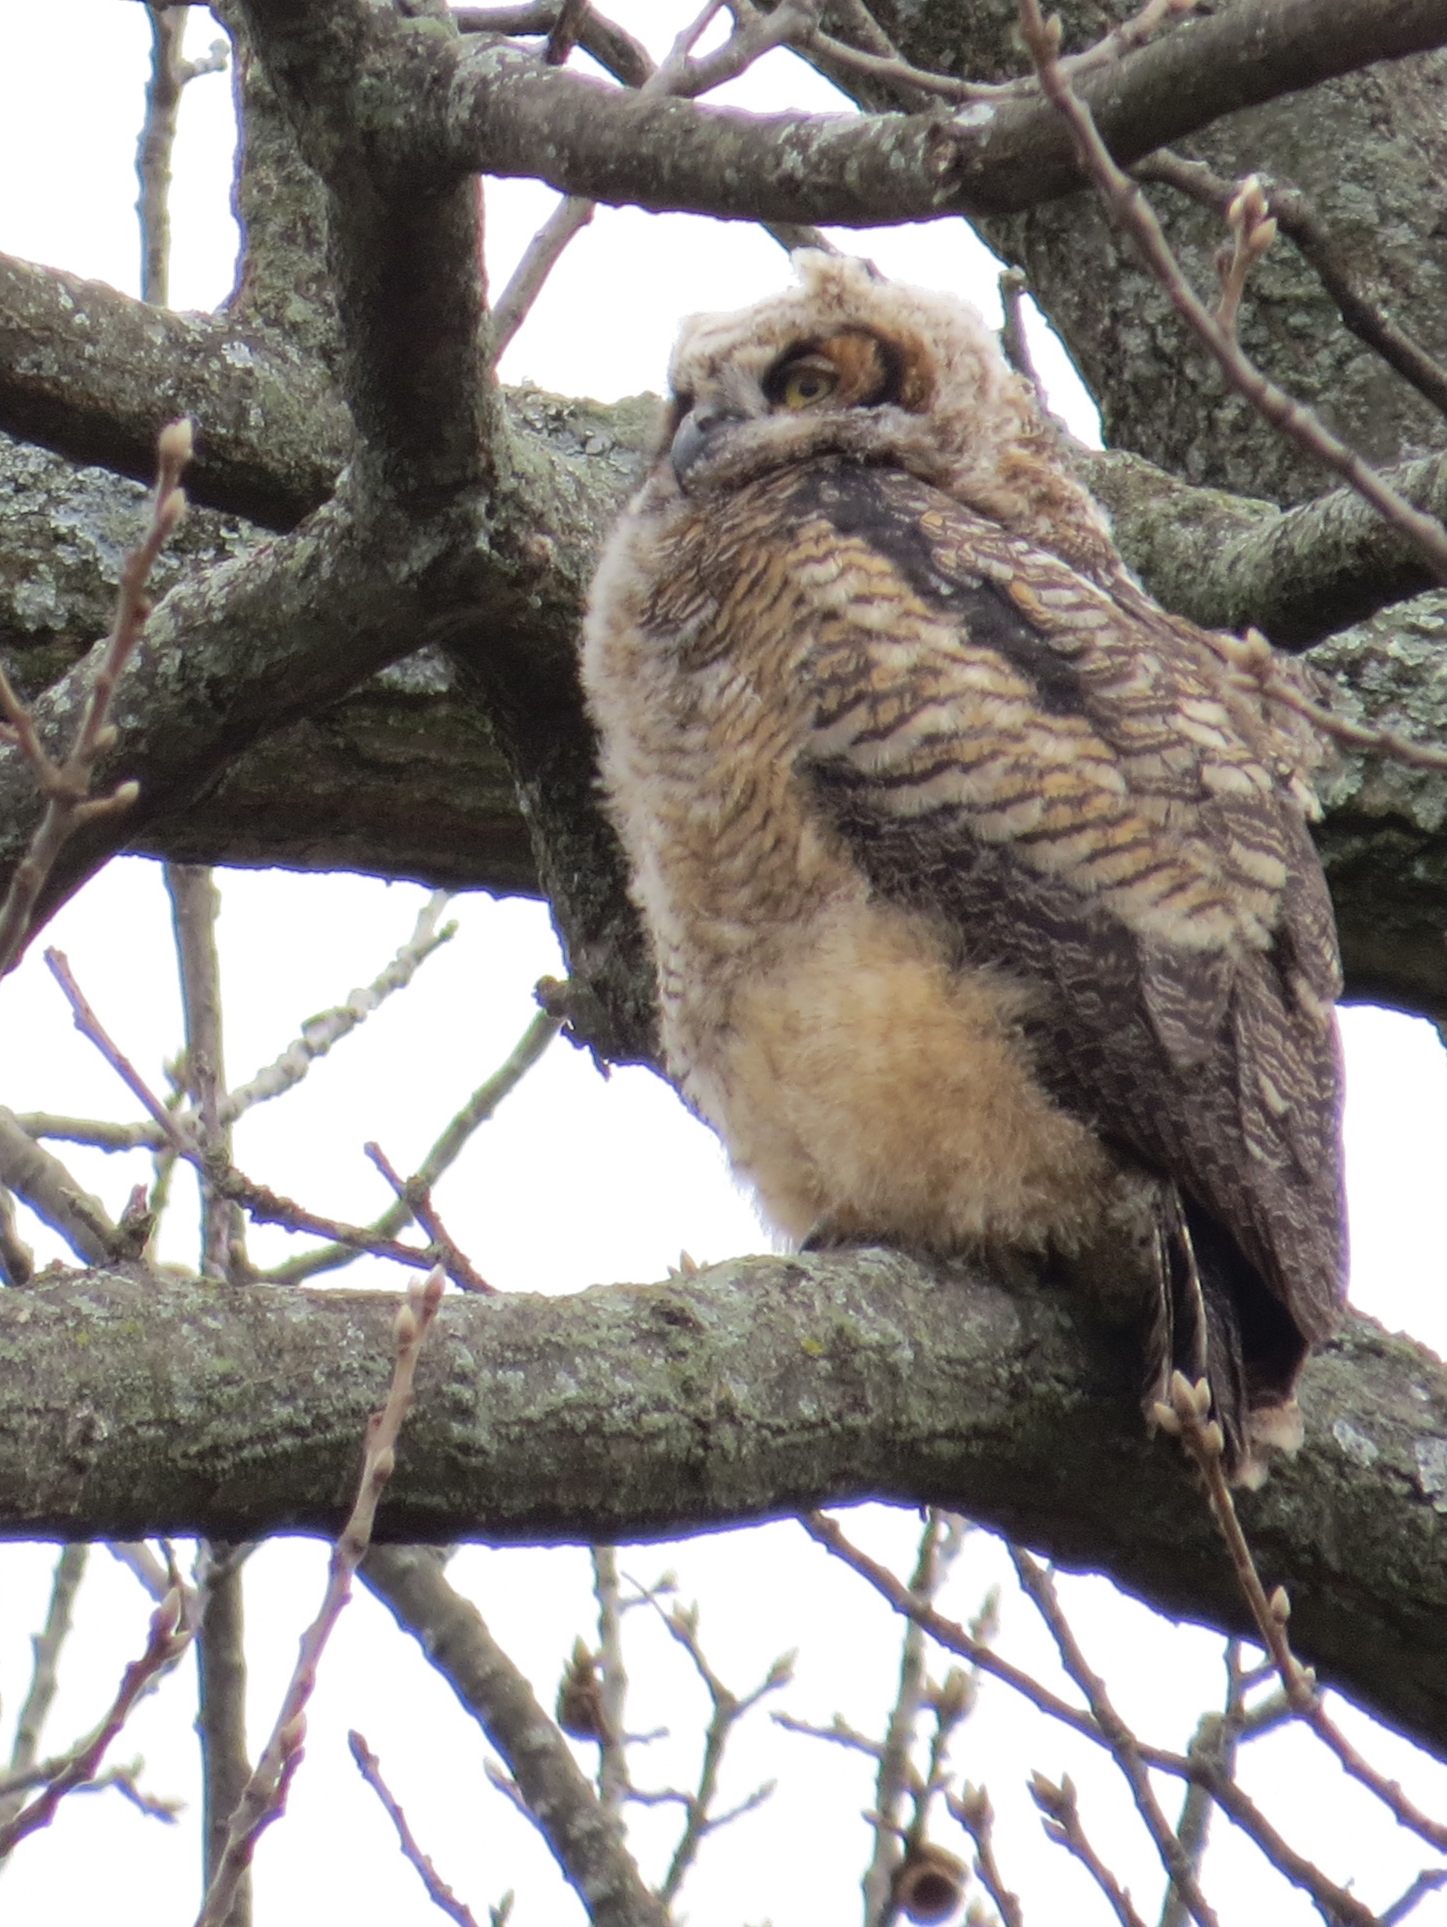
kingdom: Animalia
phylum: Chordata
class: Aves
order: Strigiformes
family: Strigidae
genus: Bubo
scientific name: Bubo virginianus
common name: Great horned owl
